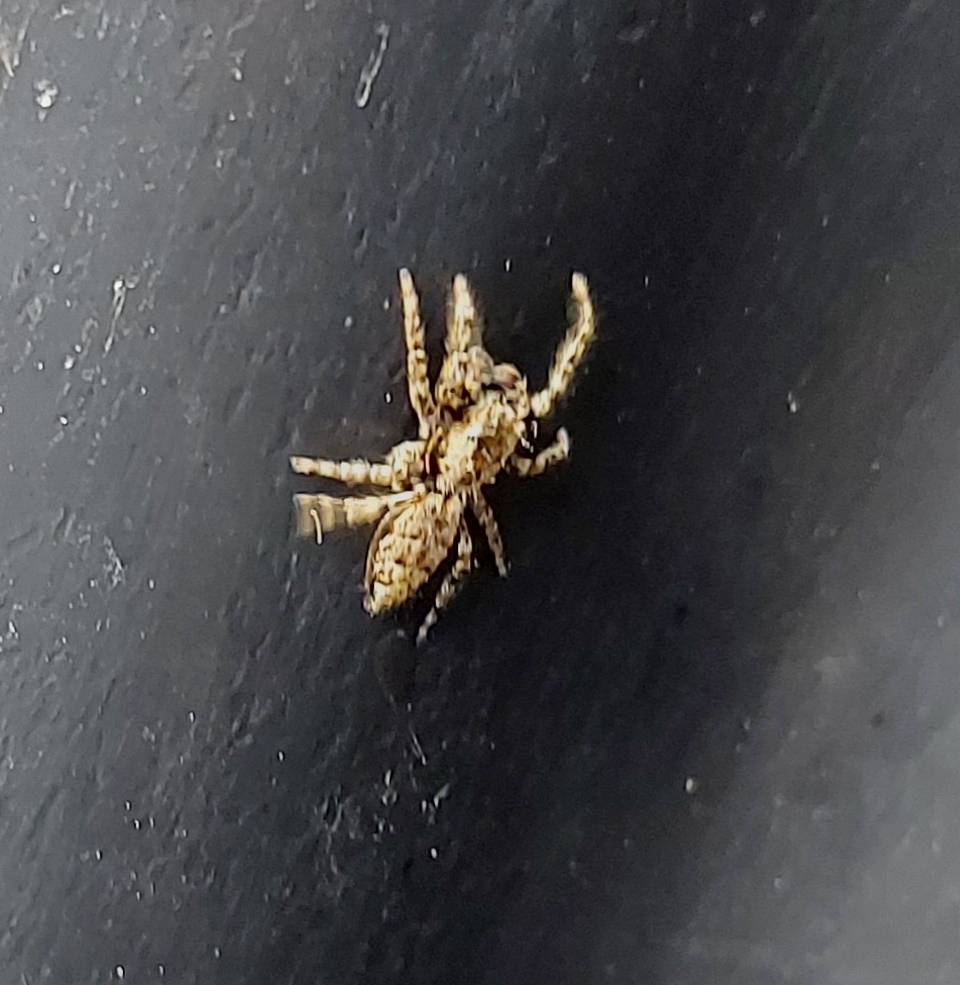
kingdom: Animalia
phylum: Arthropoda
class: Arachnida
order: Araneae
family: Salticidae
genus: Marpissa
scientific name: Marpissa muscosa
